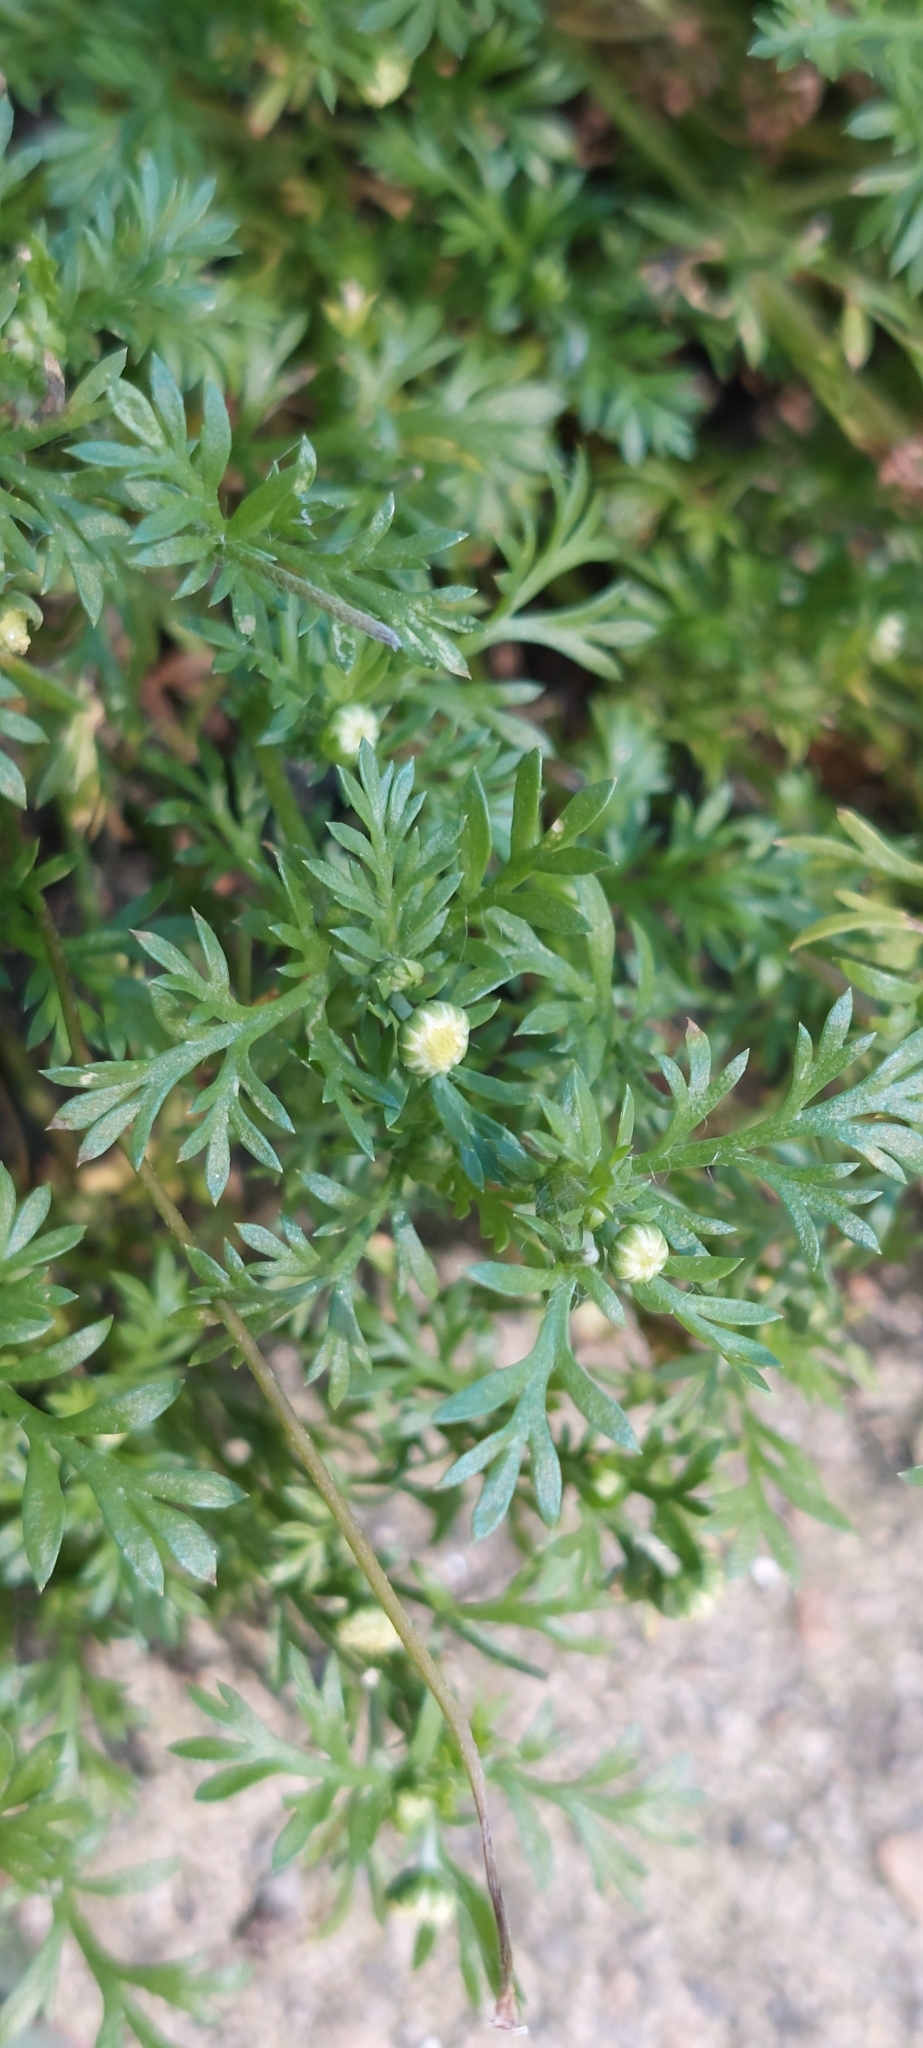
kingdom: Plantae
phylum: Tracheophyta
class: Magnoliopsida
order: Asterales
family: Asteraceae
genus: Cotula
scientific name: Cotula australis
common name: Australian waterbuttons
